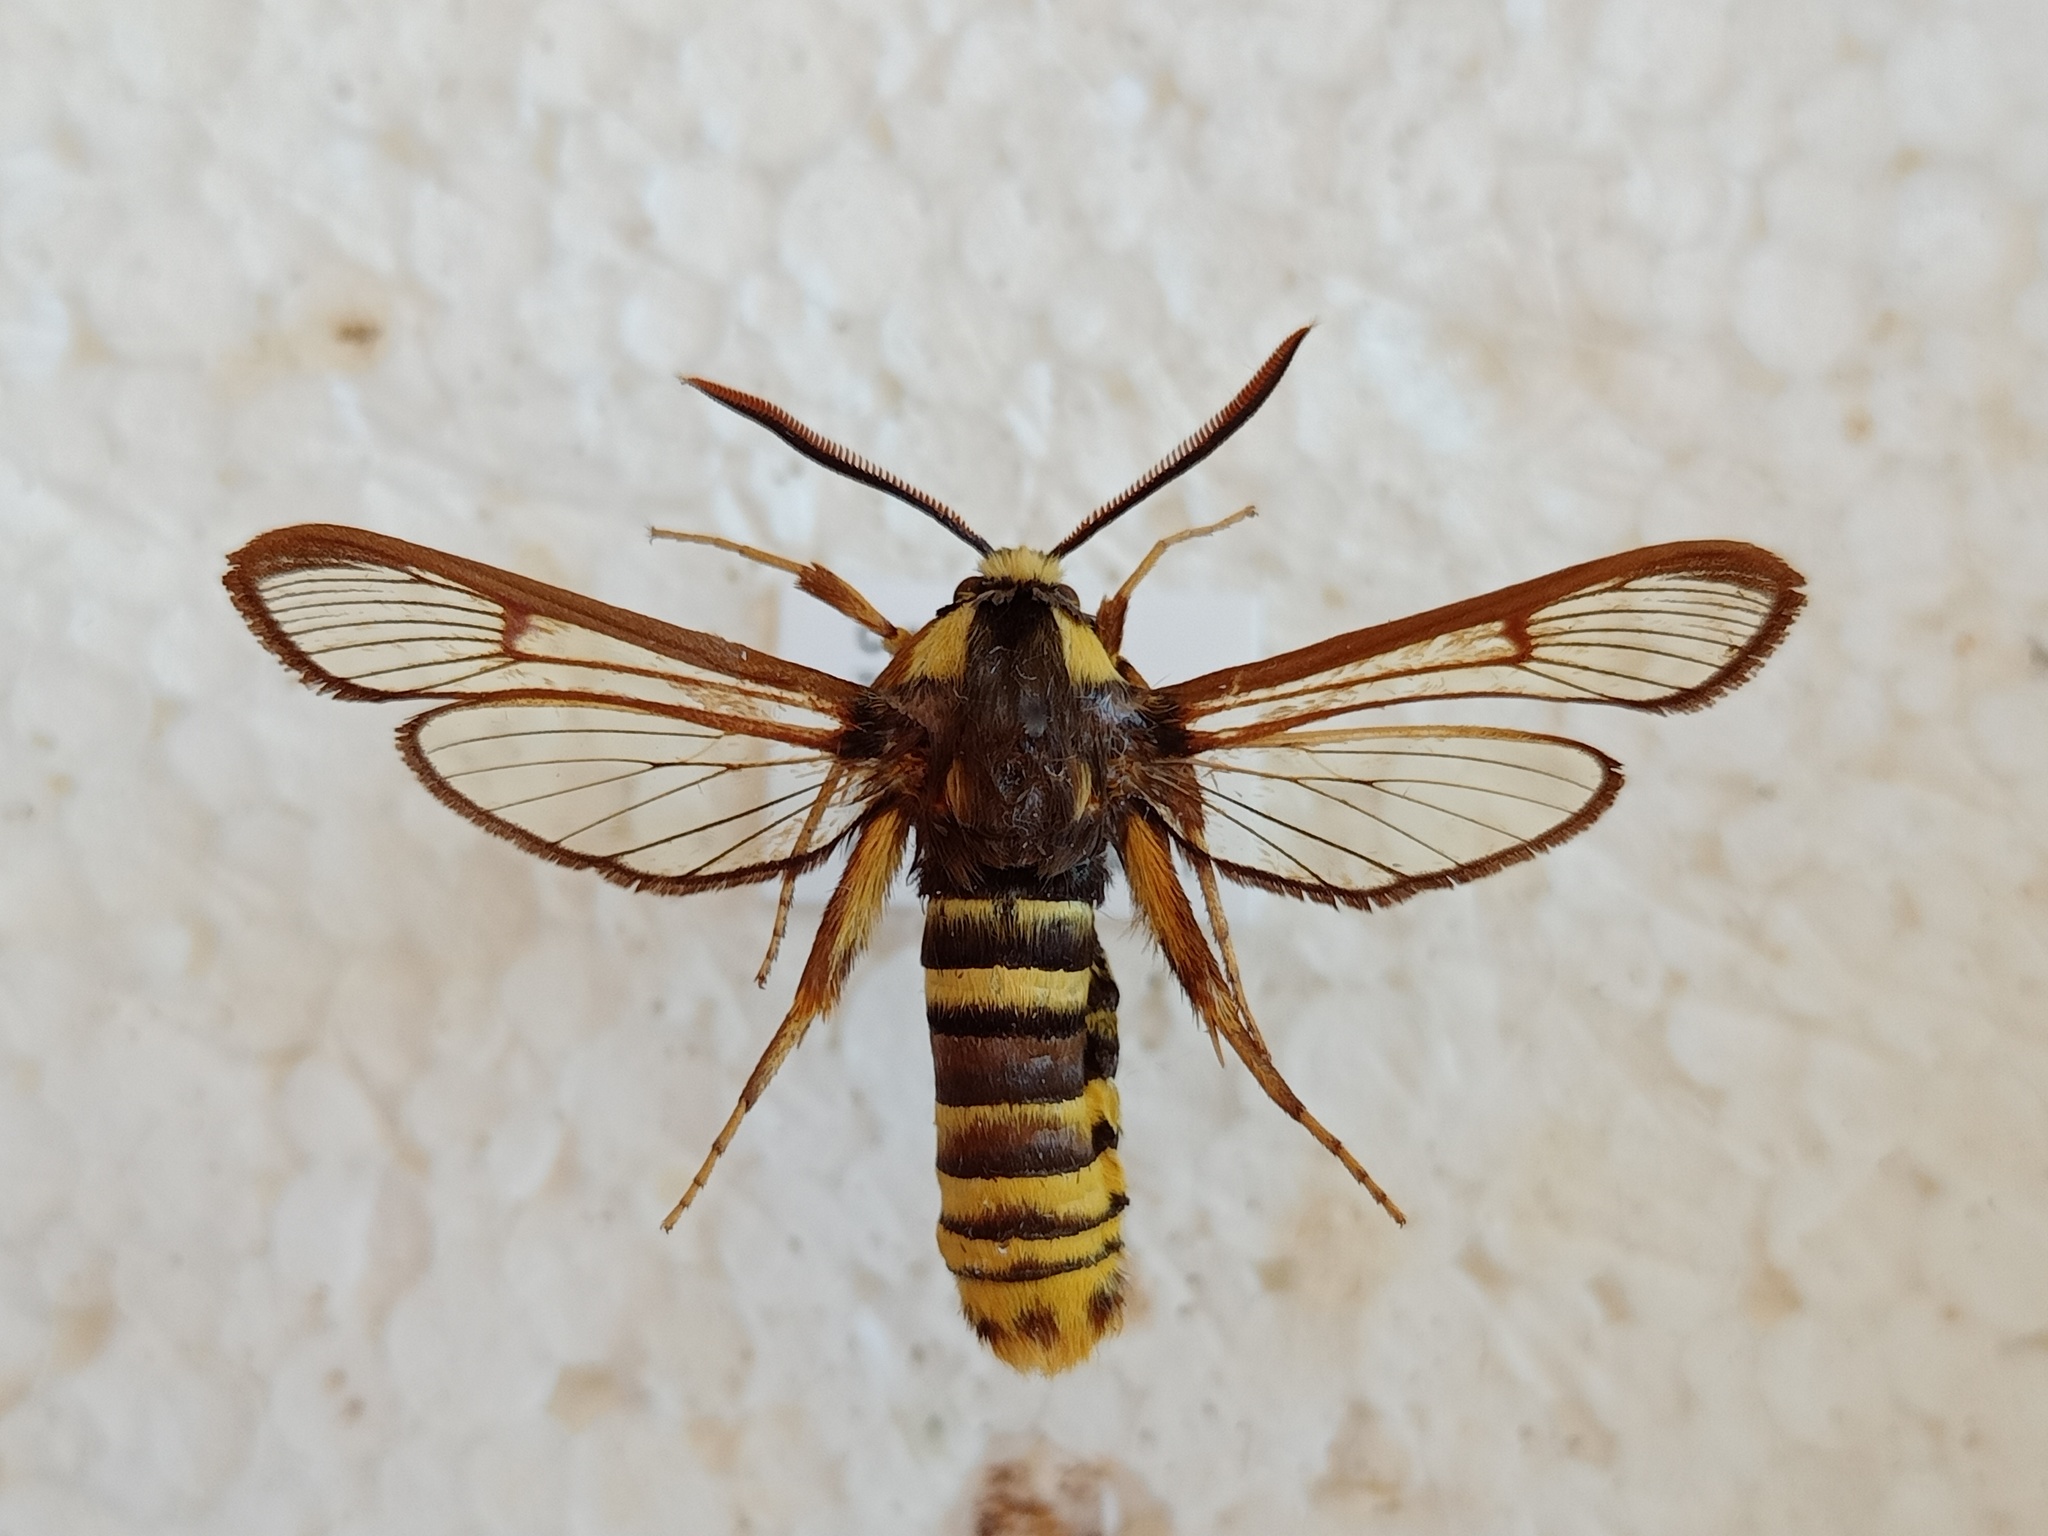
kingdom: Animalia
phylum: Arthropoda
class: Insecta
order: Lepidoptera
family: Sesiidae
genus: Sesia
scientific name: Sesia apiformis
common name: Hornet moth
